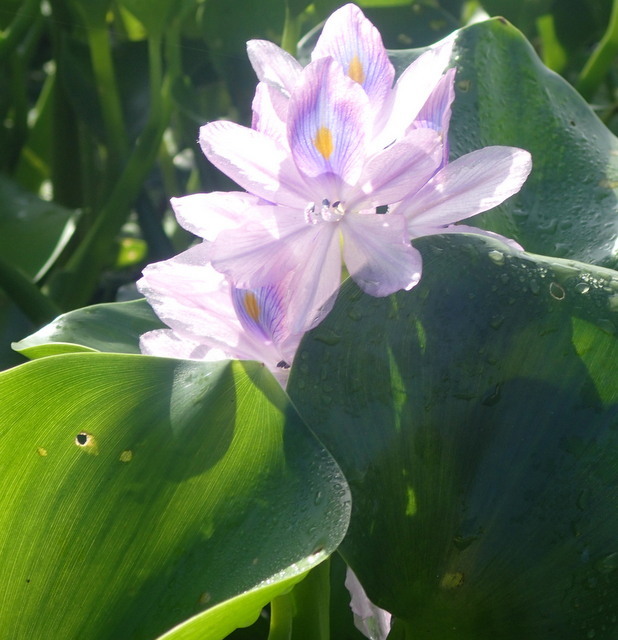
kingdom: Plantae
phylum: Tracheophyta
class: Liliopsida
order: Commelinales
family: Pontederiaceae
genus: Pontederia
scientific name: Pontederia crassipes
